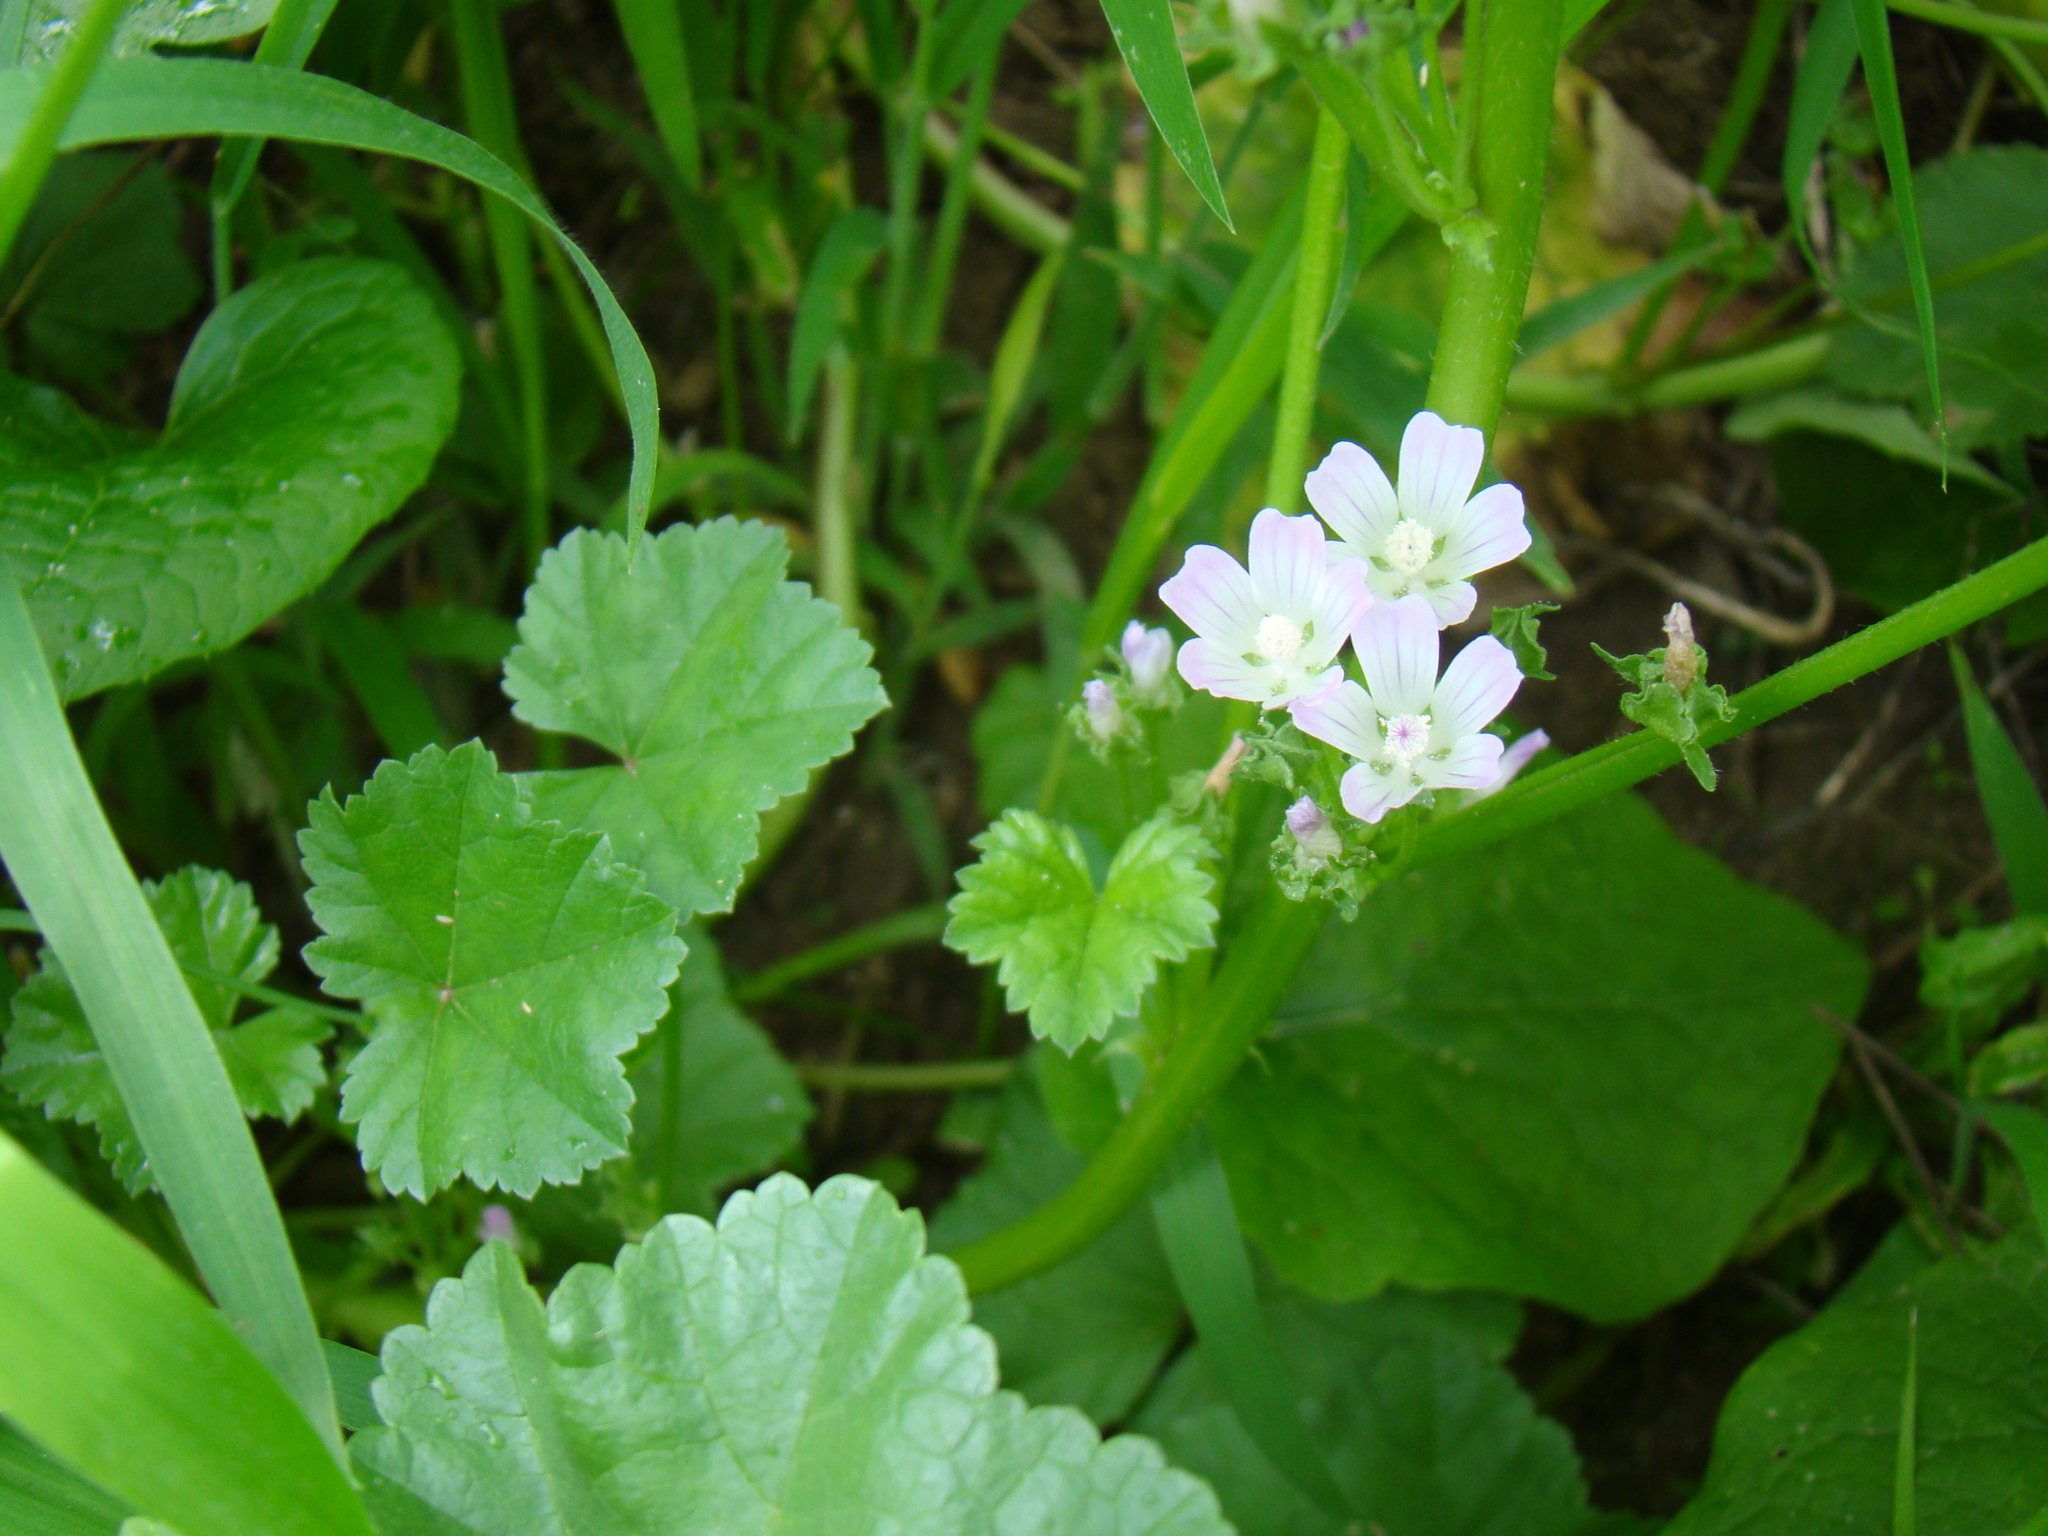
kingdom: Plantae
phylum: Tracheophyta
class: Magnoliopsida
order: Malvales
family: Malvaceae
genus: Malva
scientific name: Malva neglecta
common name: Common mallow
